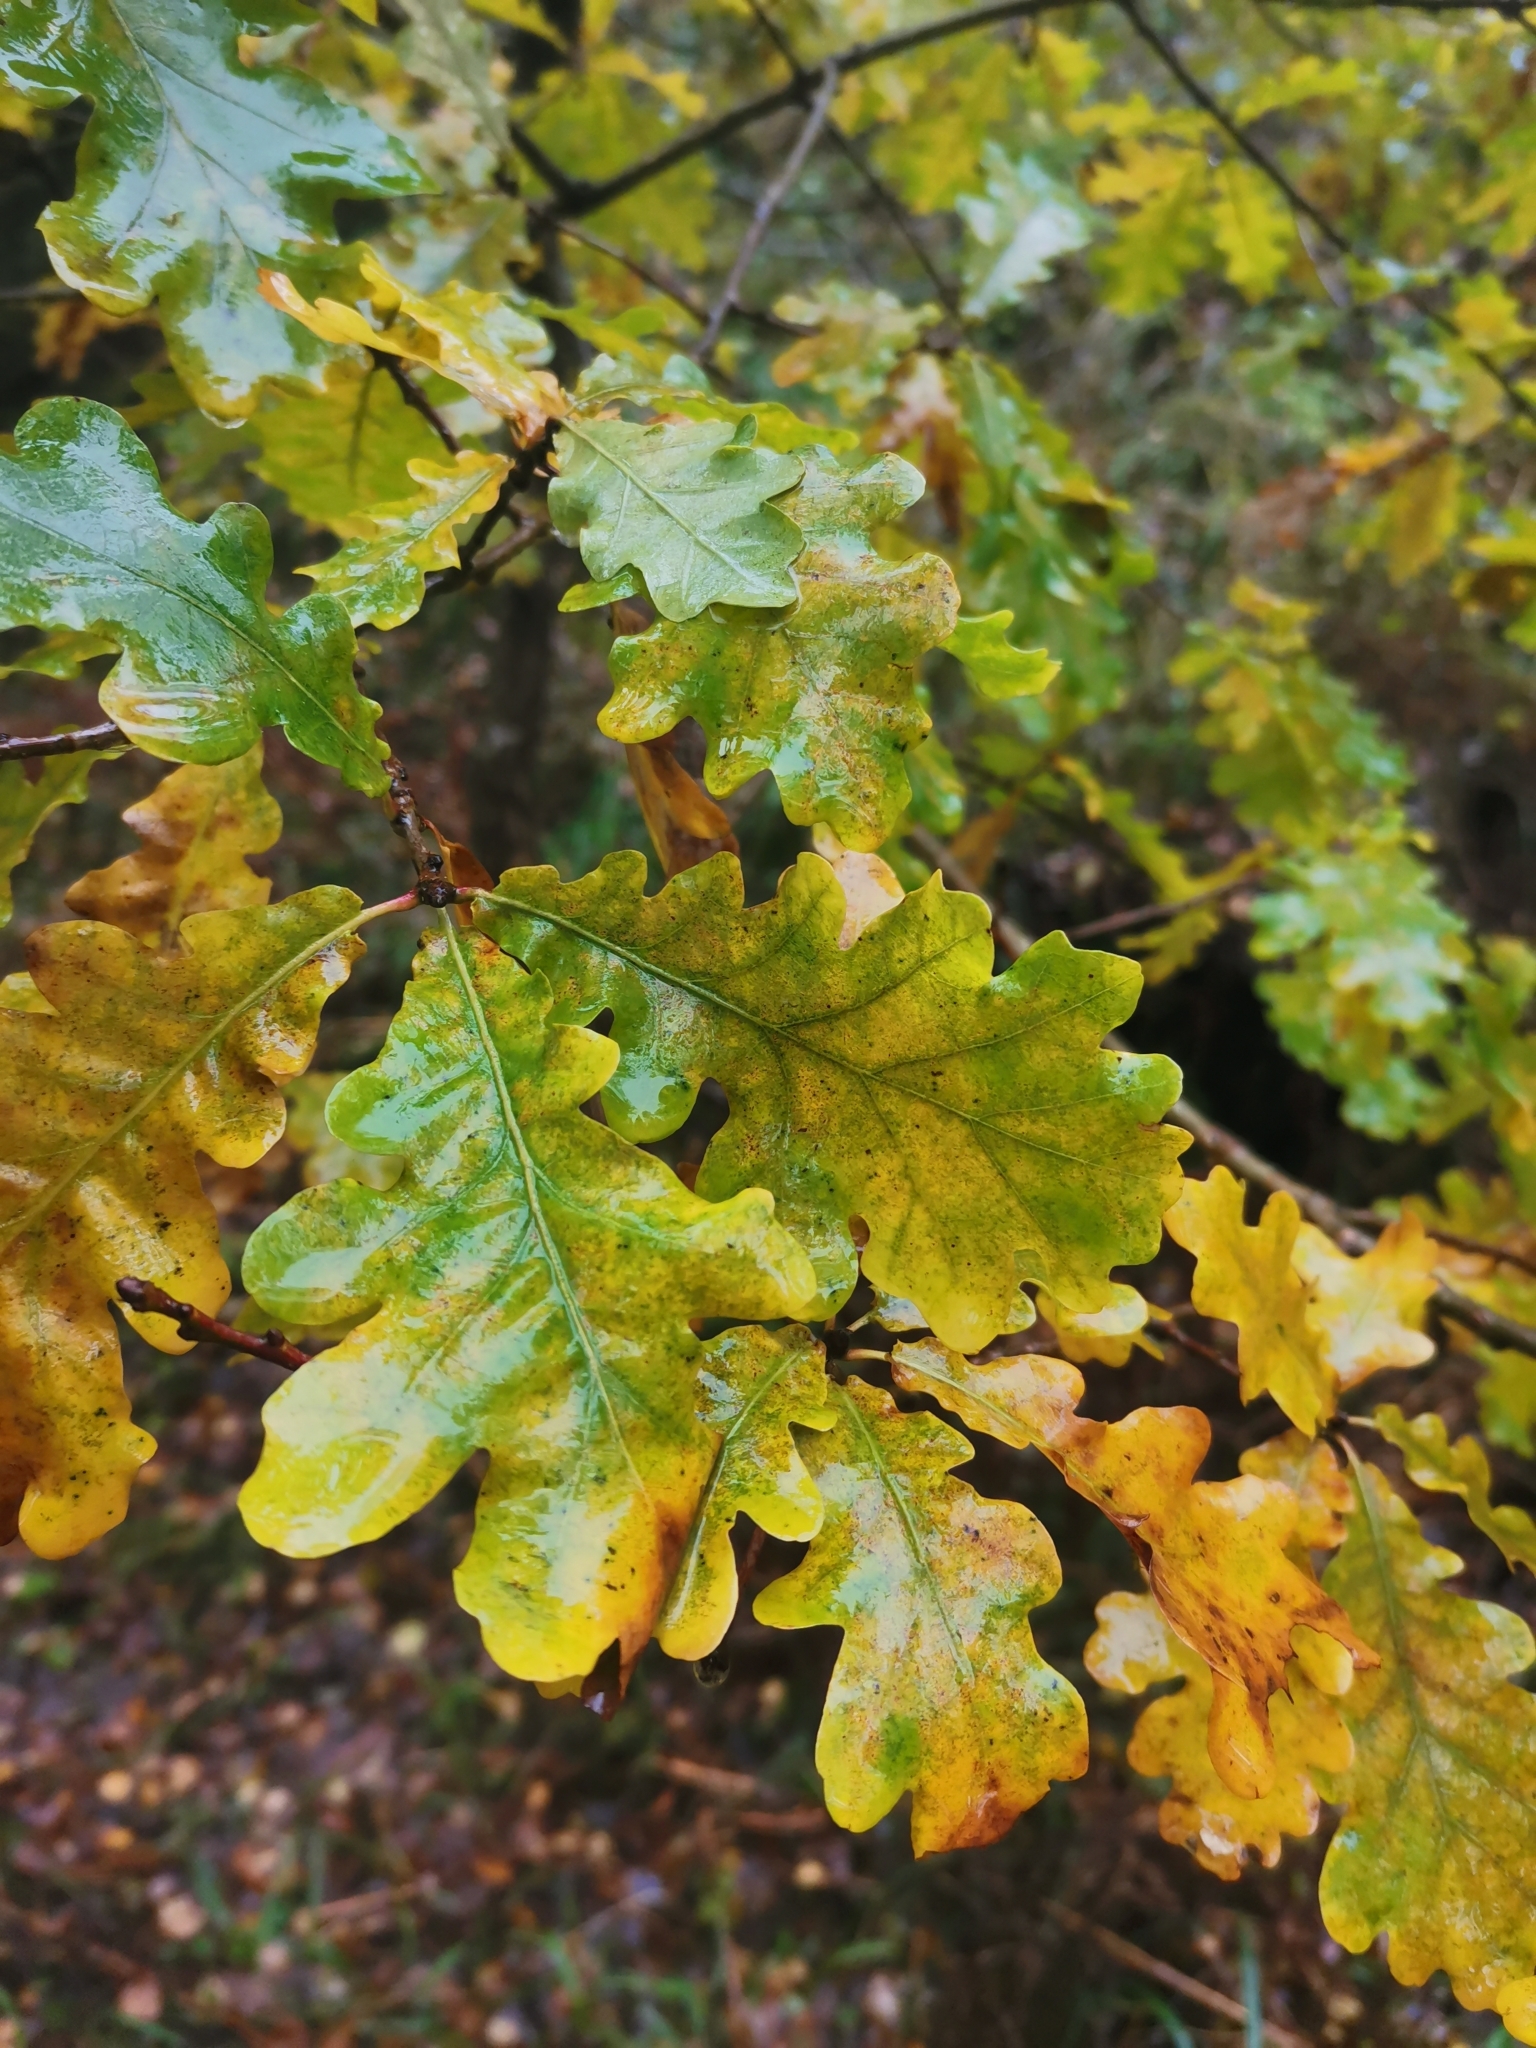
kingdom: Plantae
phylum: Tracheophyta
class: Magnoliopsida
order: Fagales
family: Fagaceae
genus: Quercus
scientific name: Quercus robur
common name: Pedunculate oak
